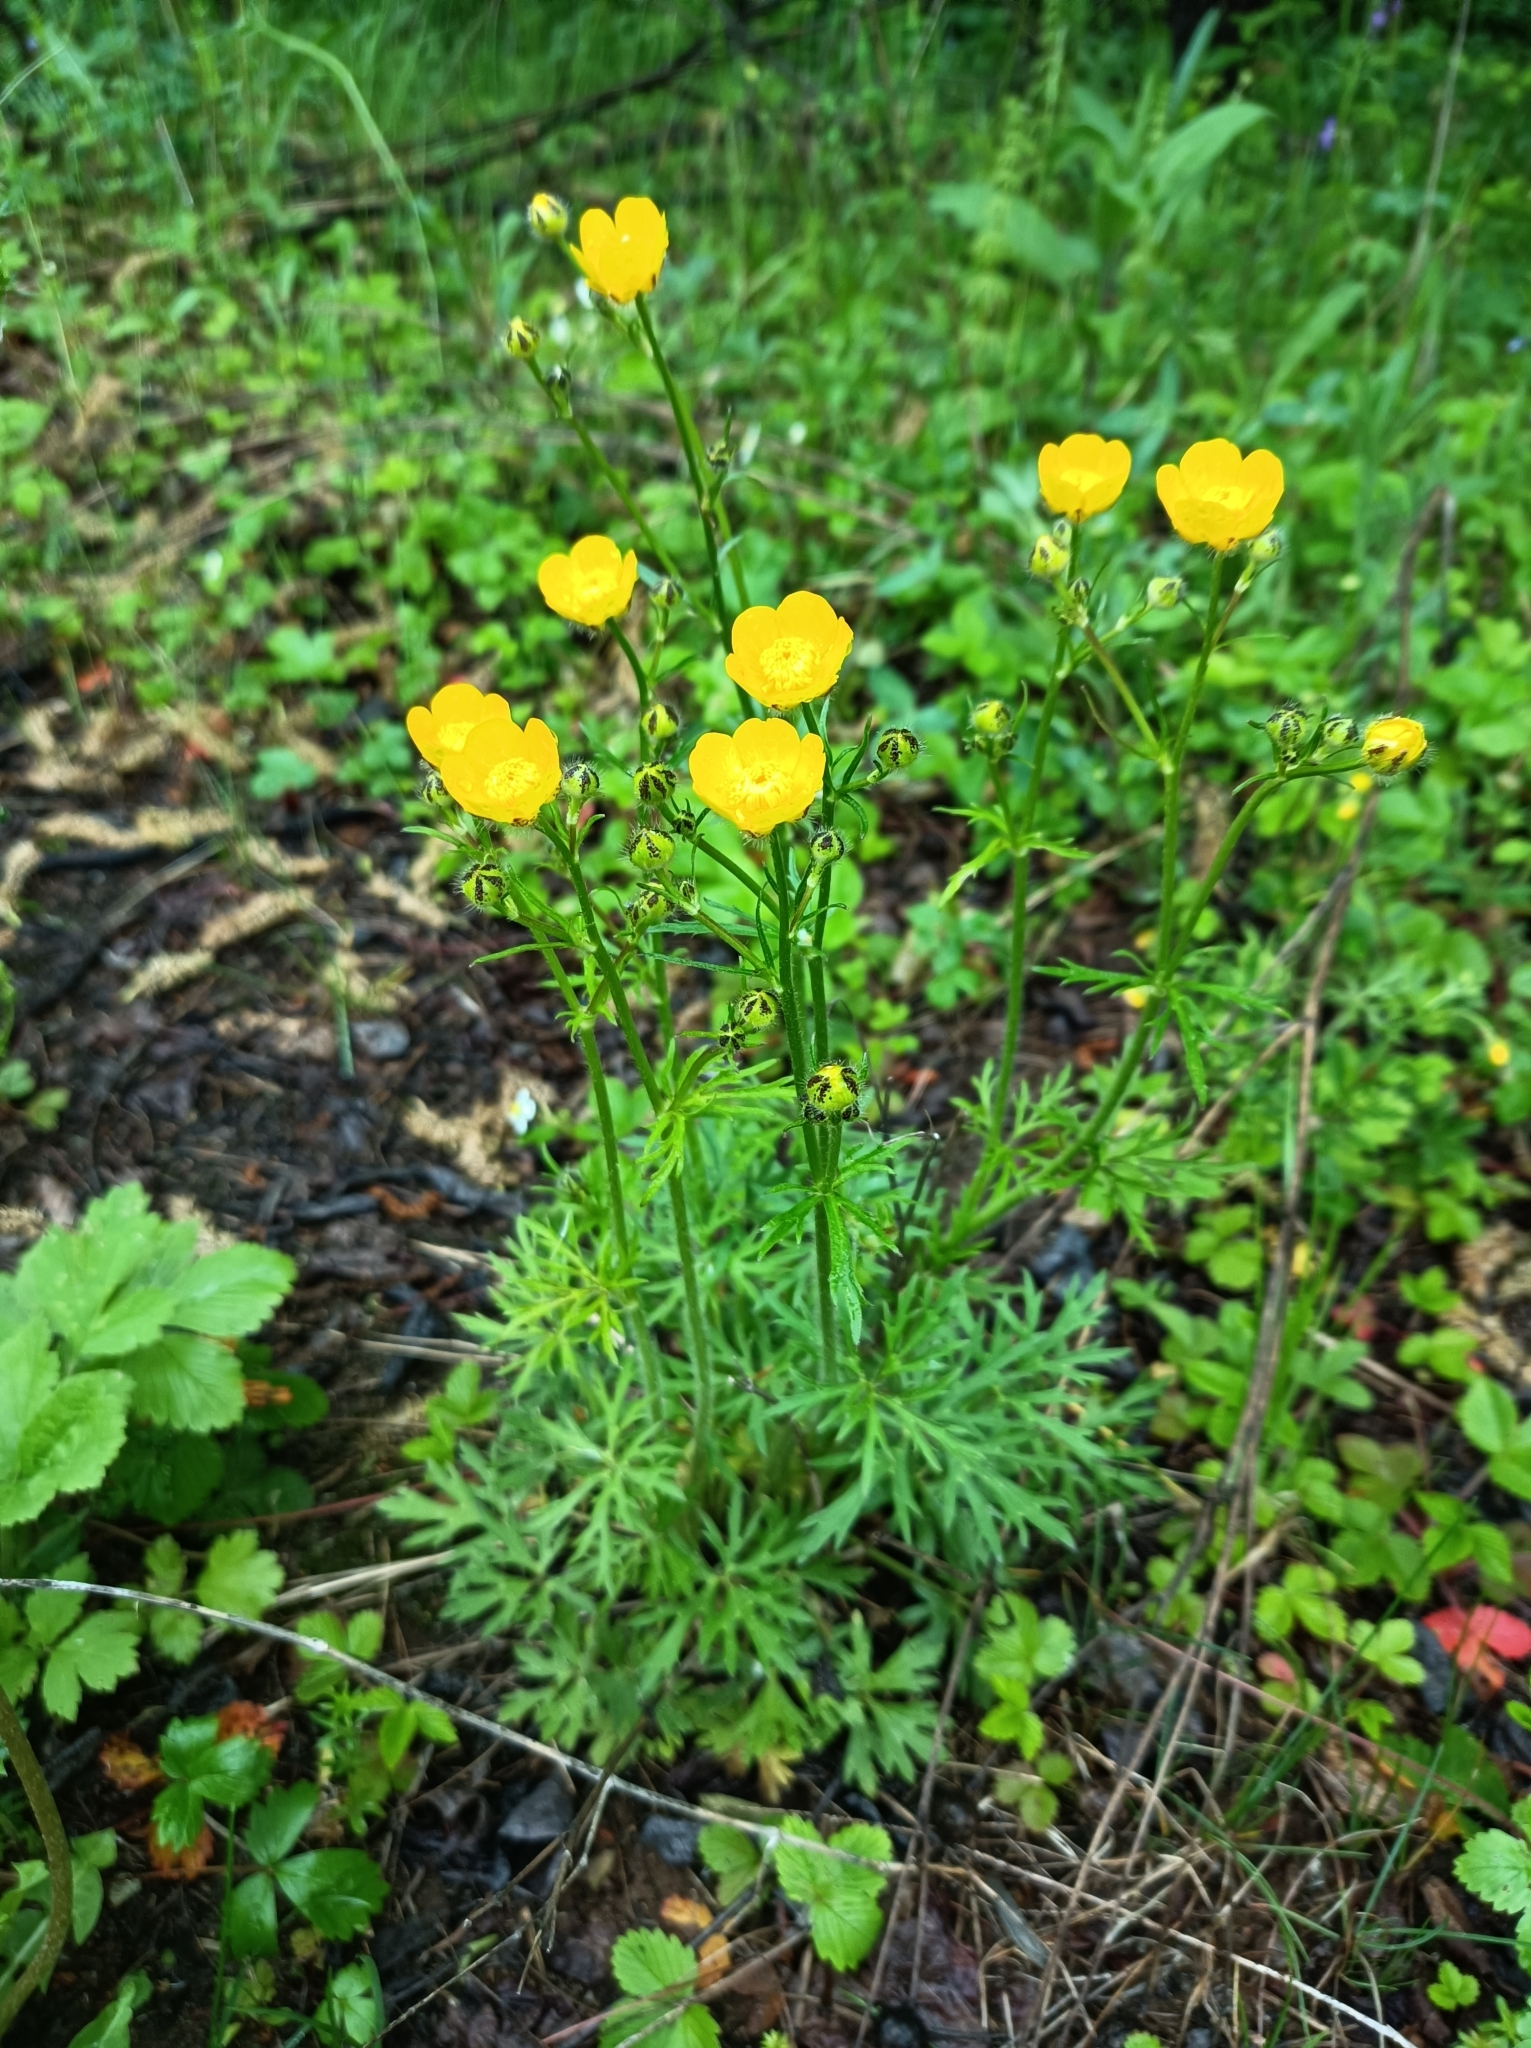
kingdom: Plantae
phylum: Tracheophyta
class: Magnoliopsida
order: Ranunculales
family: Ranunculaceae
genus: Ranunculus
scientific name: Ranunculus polyanthemos
